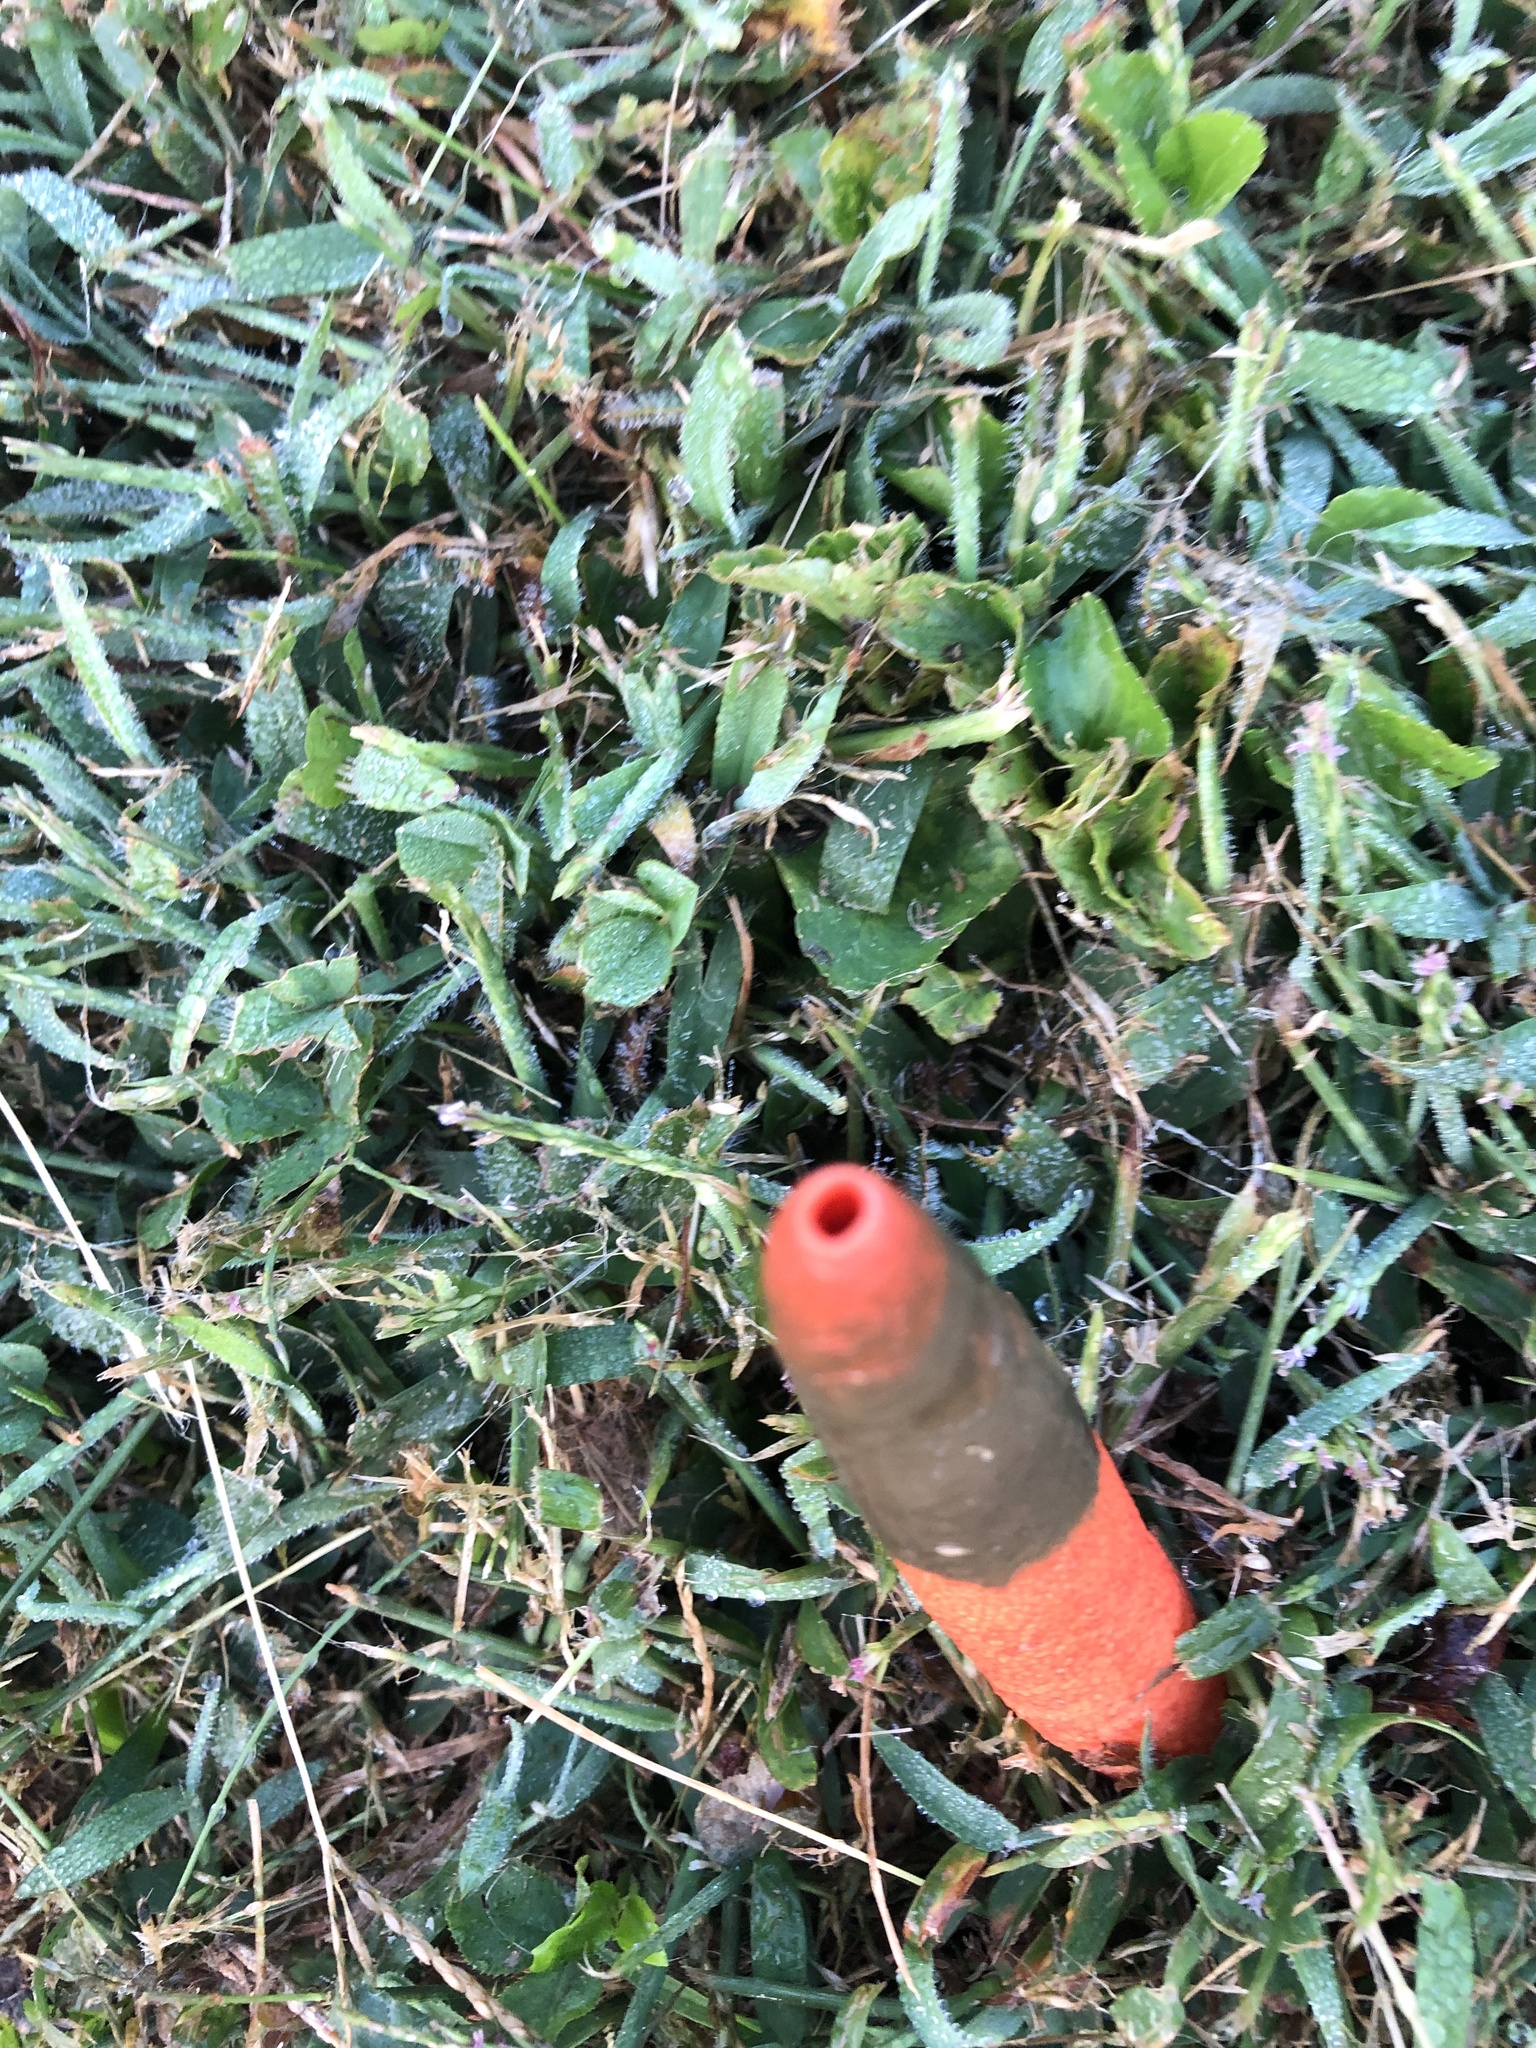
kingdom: Fungi
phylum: Basidiomycota
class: Agaricomycetes
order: Phallales
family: Phallaceae
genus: Mutinus
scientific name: Mutinus elegans
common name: Devil's dipstick
